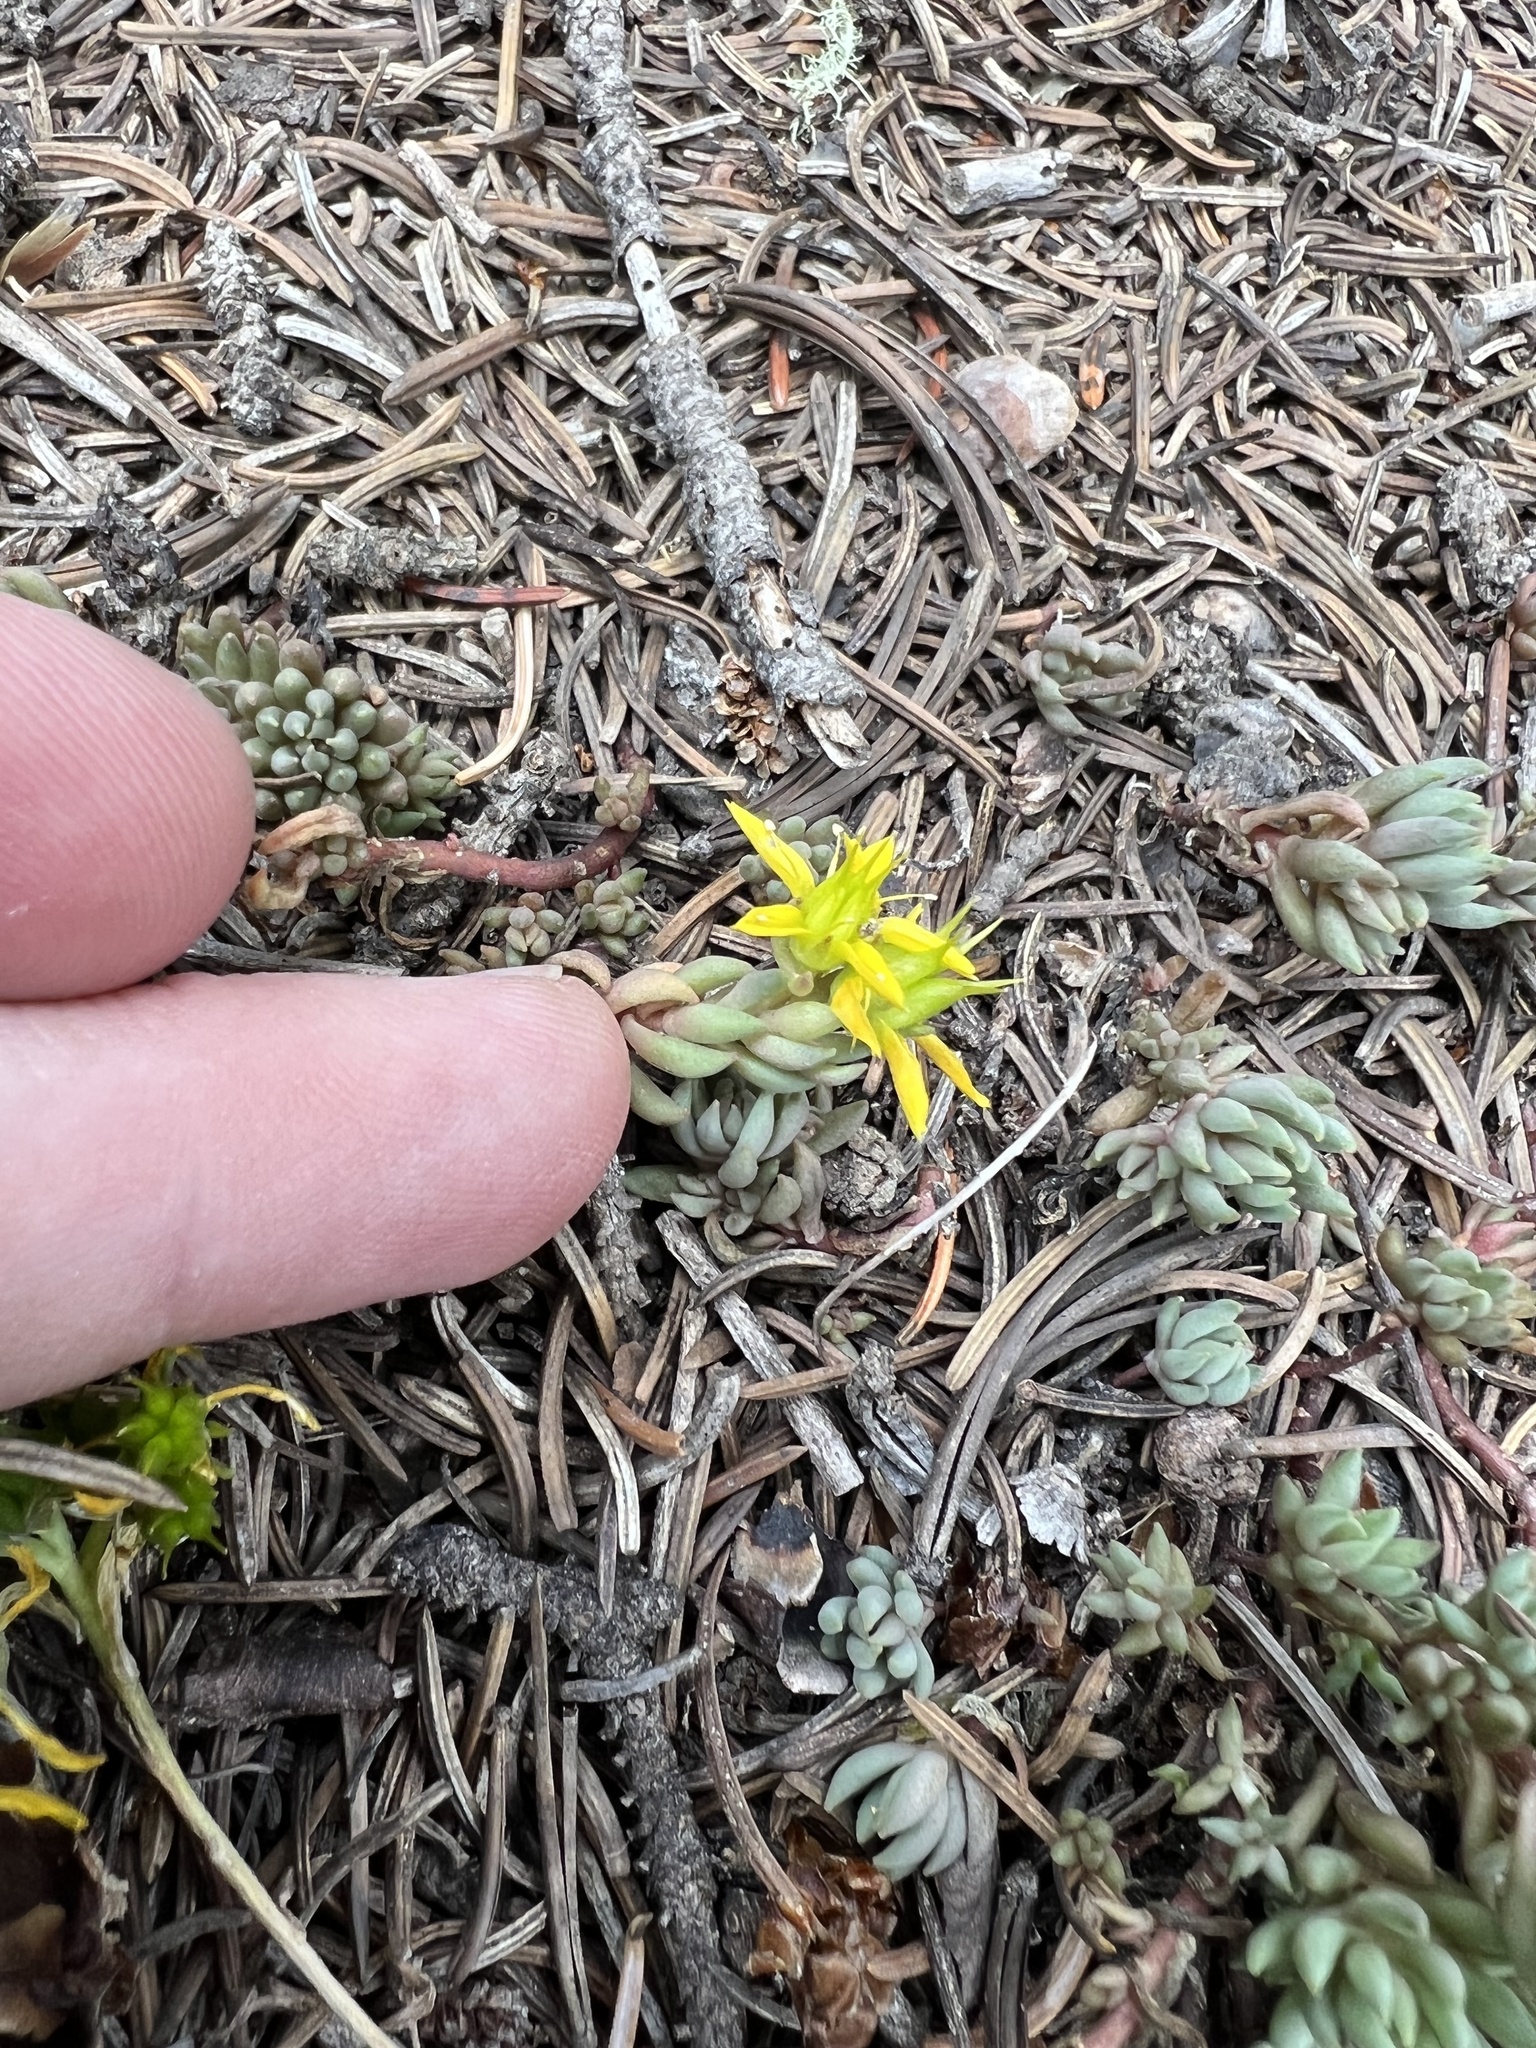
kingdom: Plantae
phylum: Tracheophyta
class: Magnoliopsida
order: Saxifragales
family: Crassulaceae
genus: Sedum
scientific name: Sedum lanceolatum
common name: Common stonecrop
